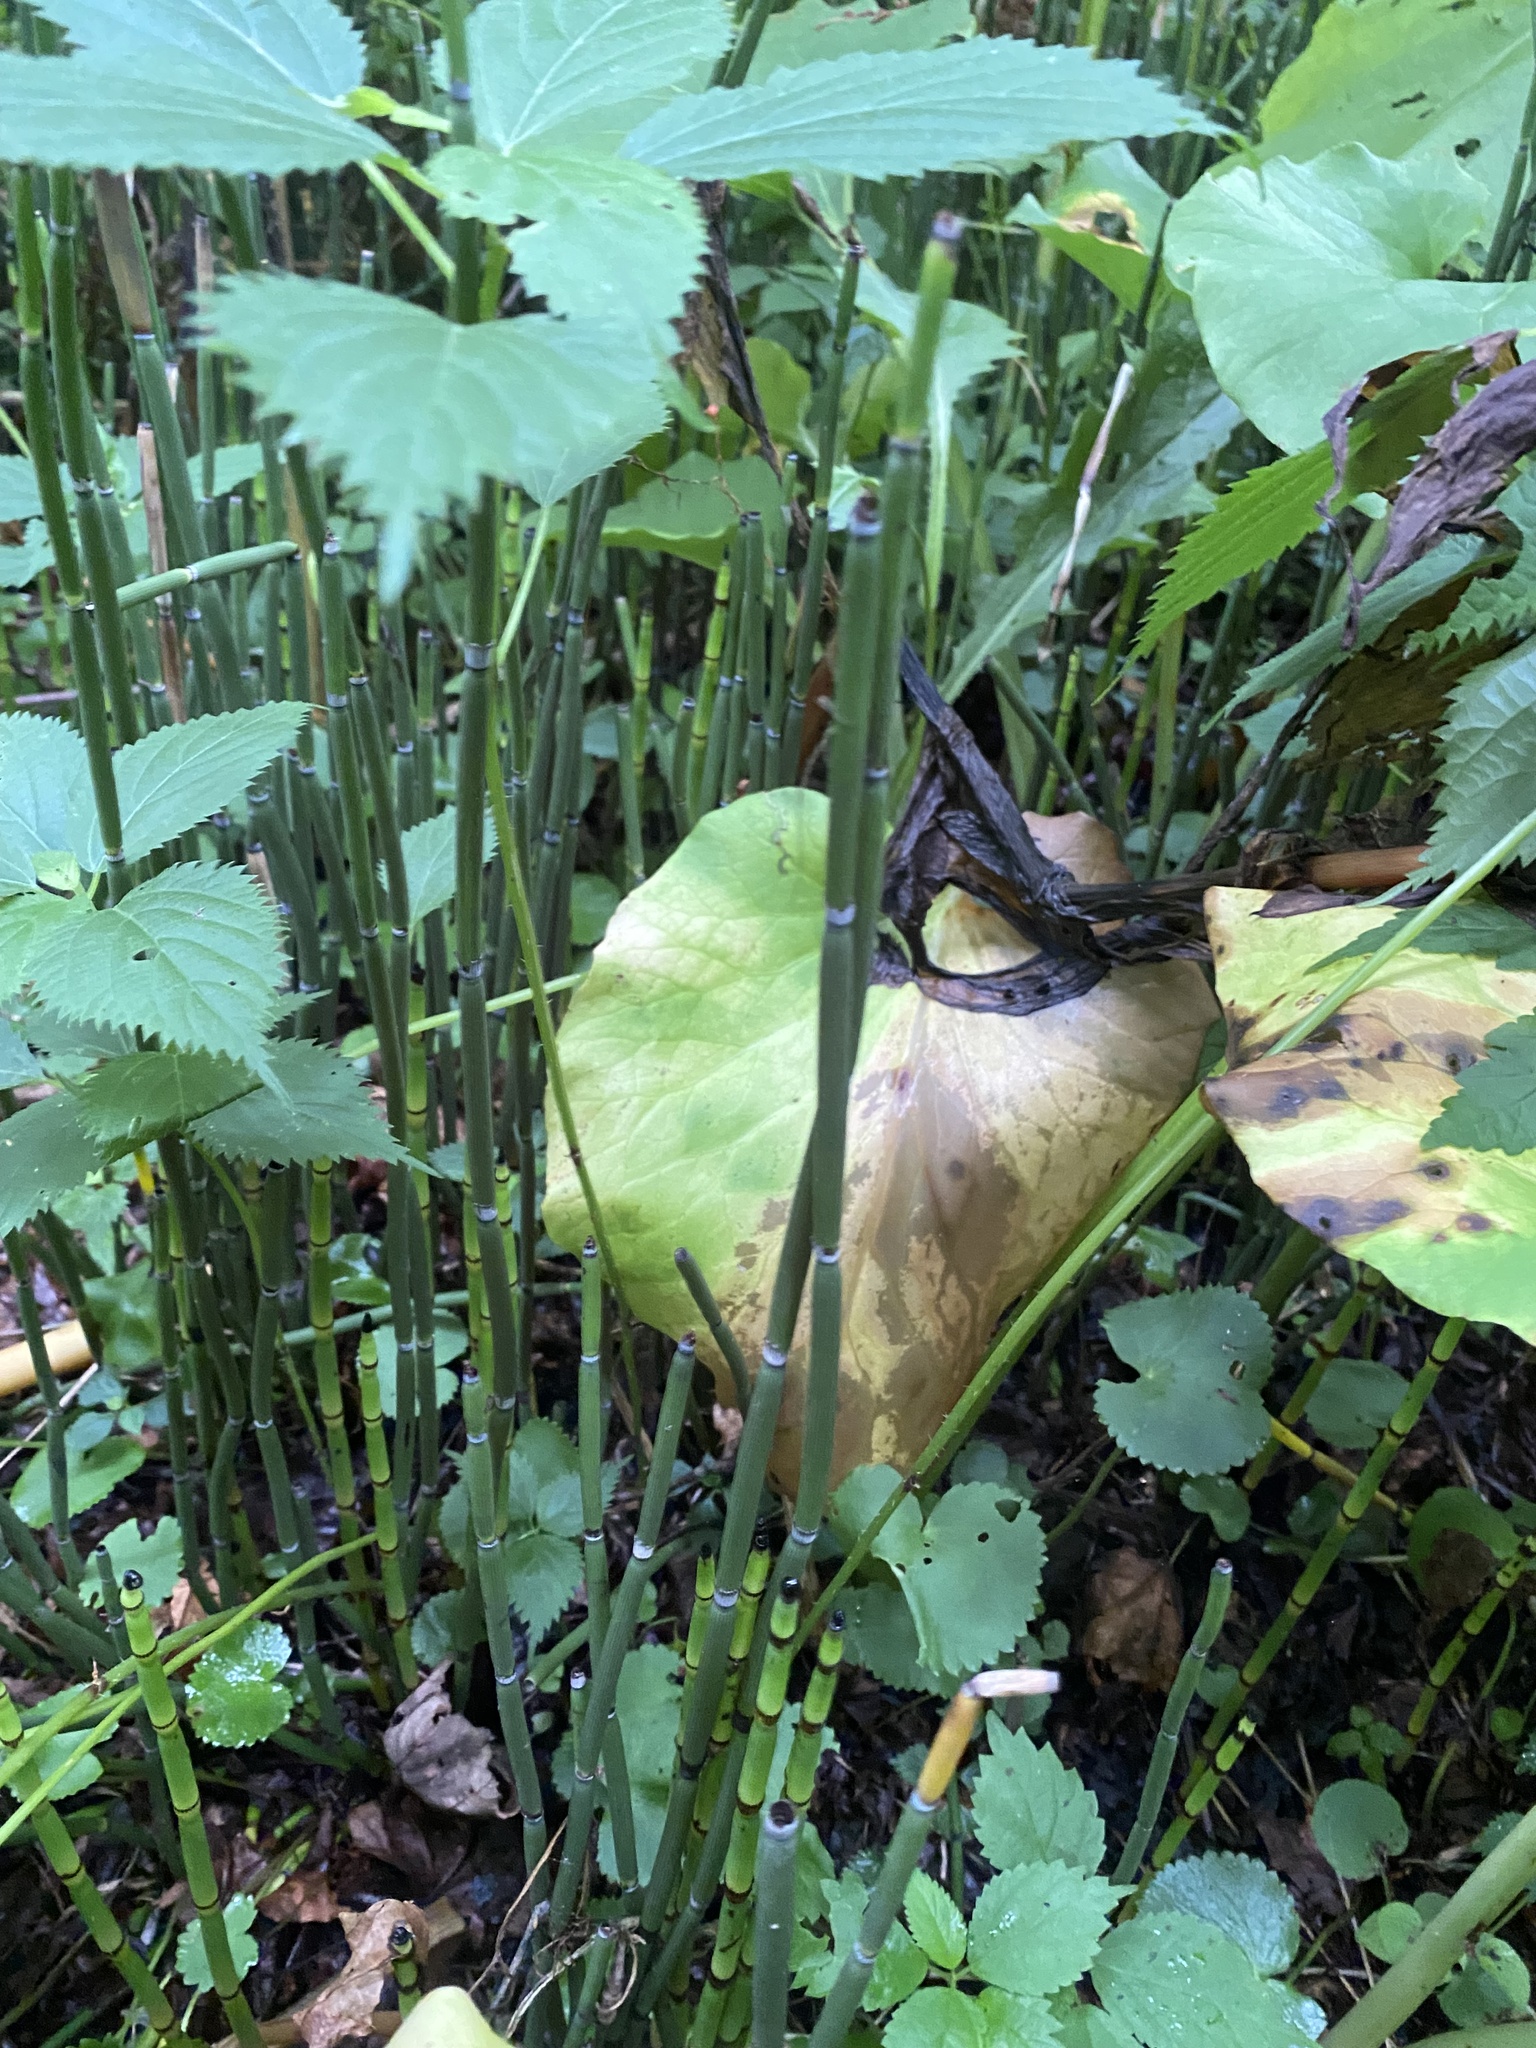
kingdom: Plantae
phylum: Tracheophyta
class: Polypodiopsida
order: Equisetales
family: Equisetaceae
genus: Equisetum
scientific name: Equisetum hyemale
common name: Rough horsetail
